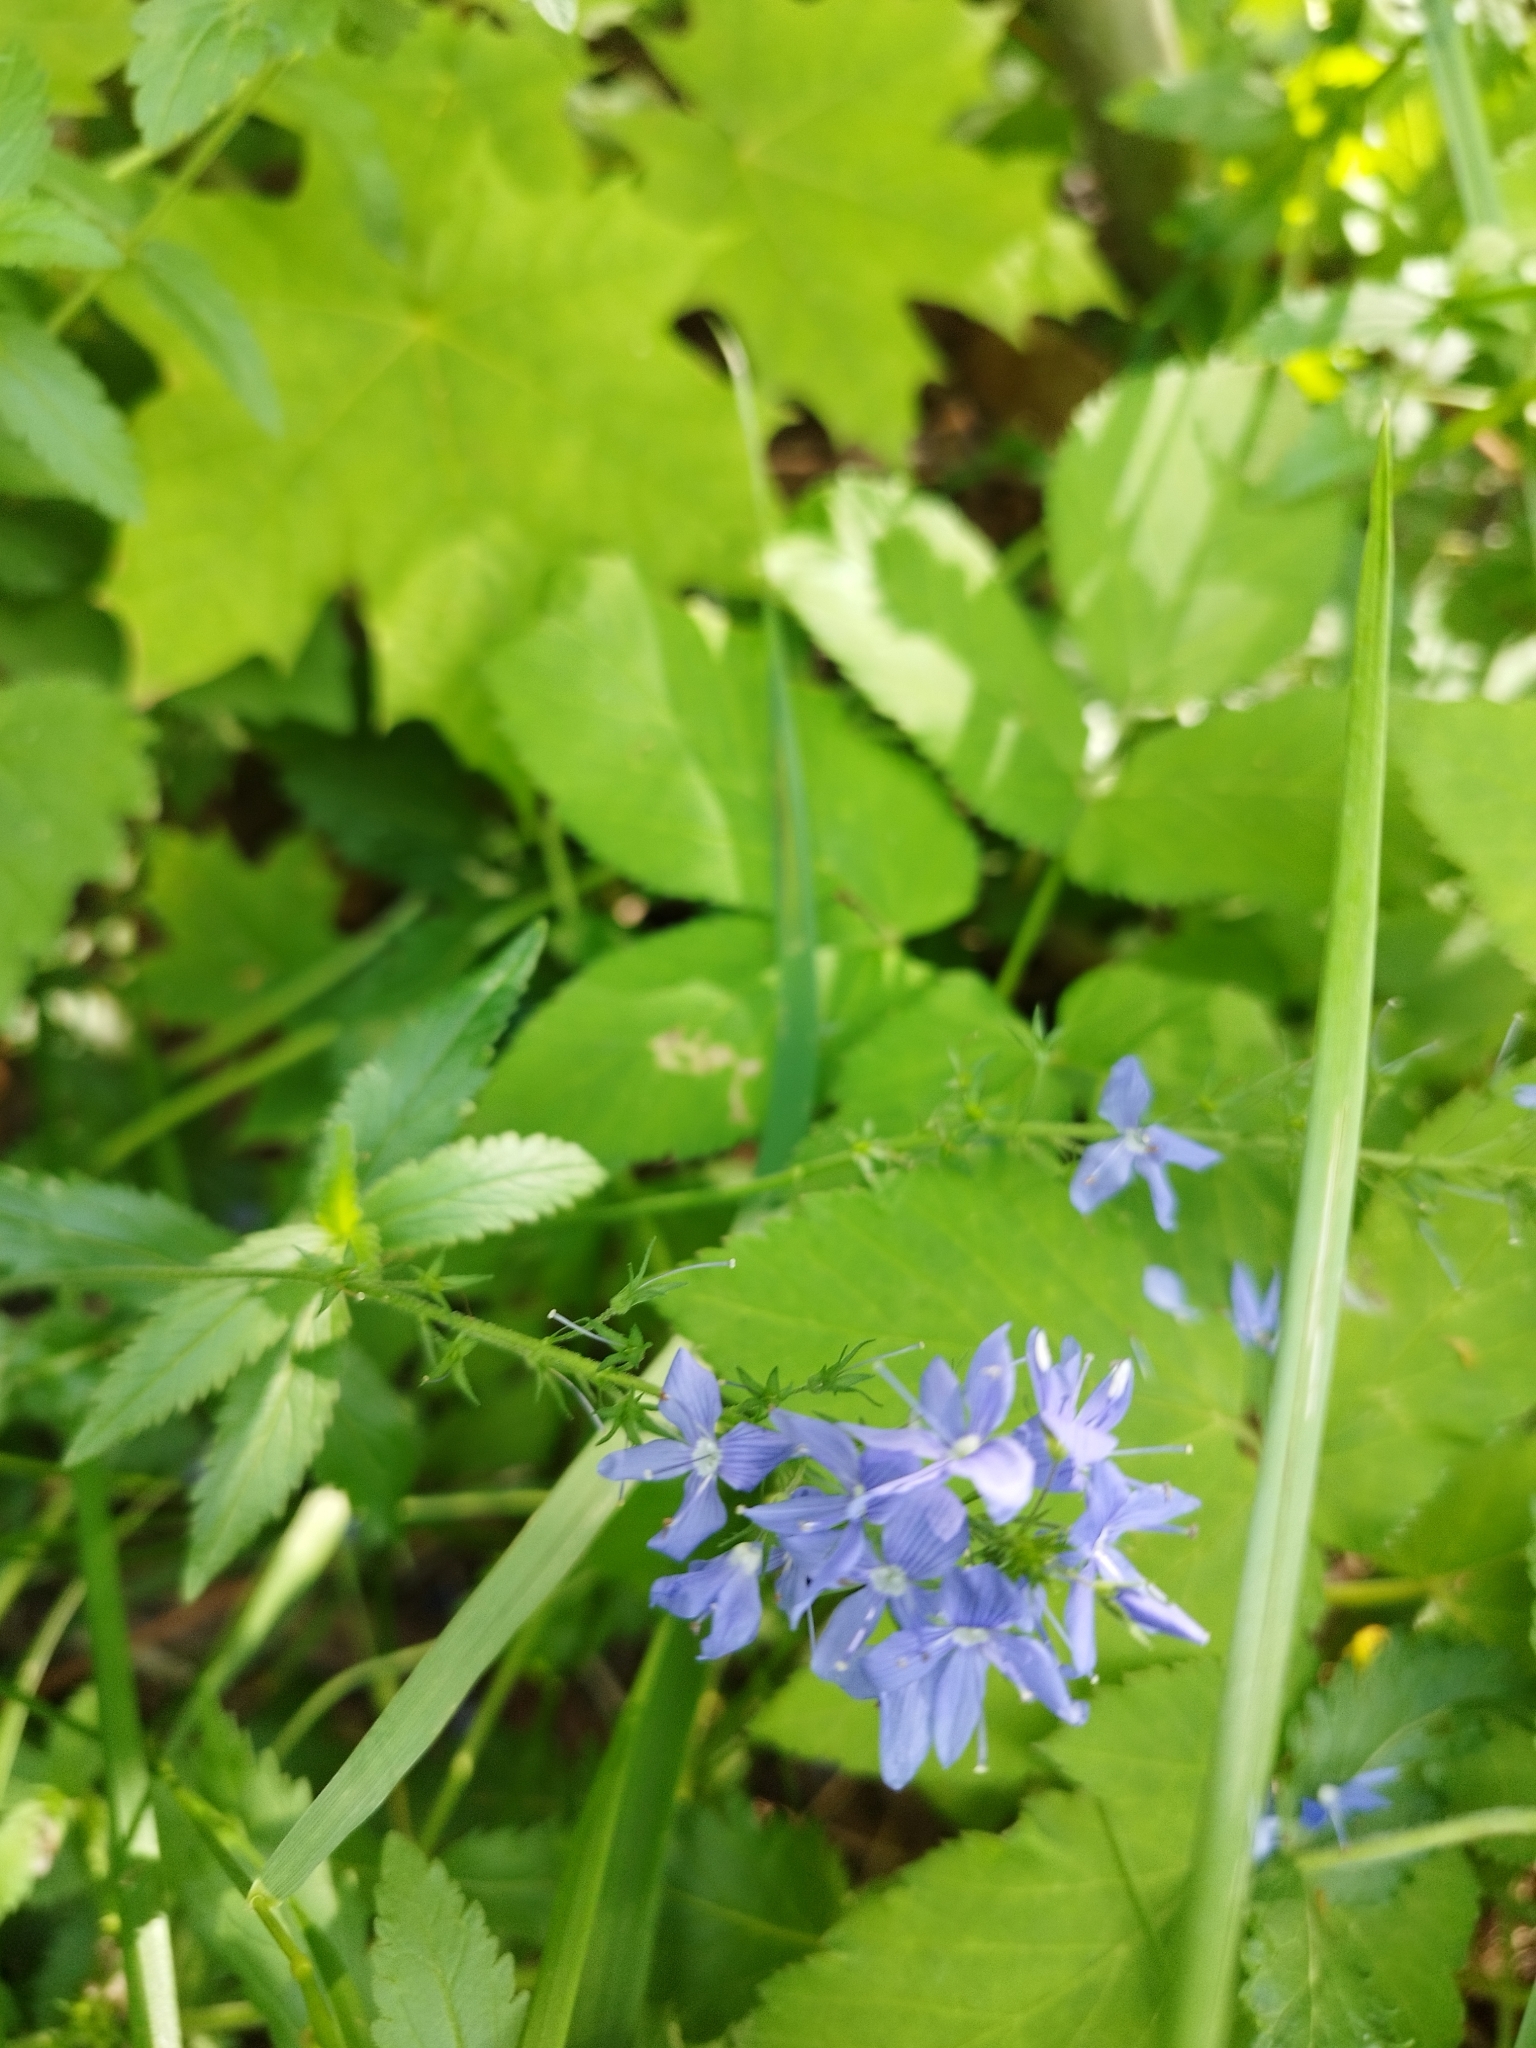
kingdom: Plantae
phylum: Tracheophyta
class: Magnoliopsida
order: Lamiales
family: Plantaginaceae
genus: Veronica
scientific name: Veronica teucrium
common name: Large speedwell
